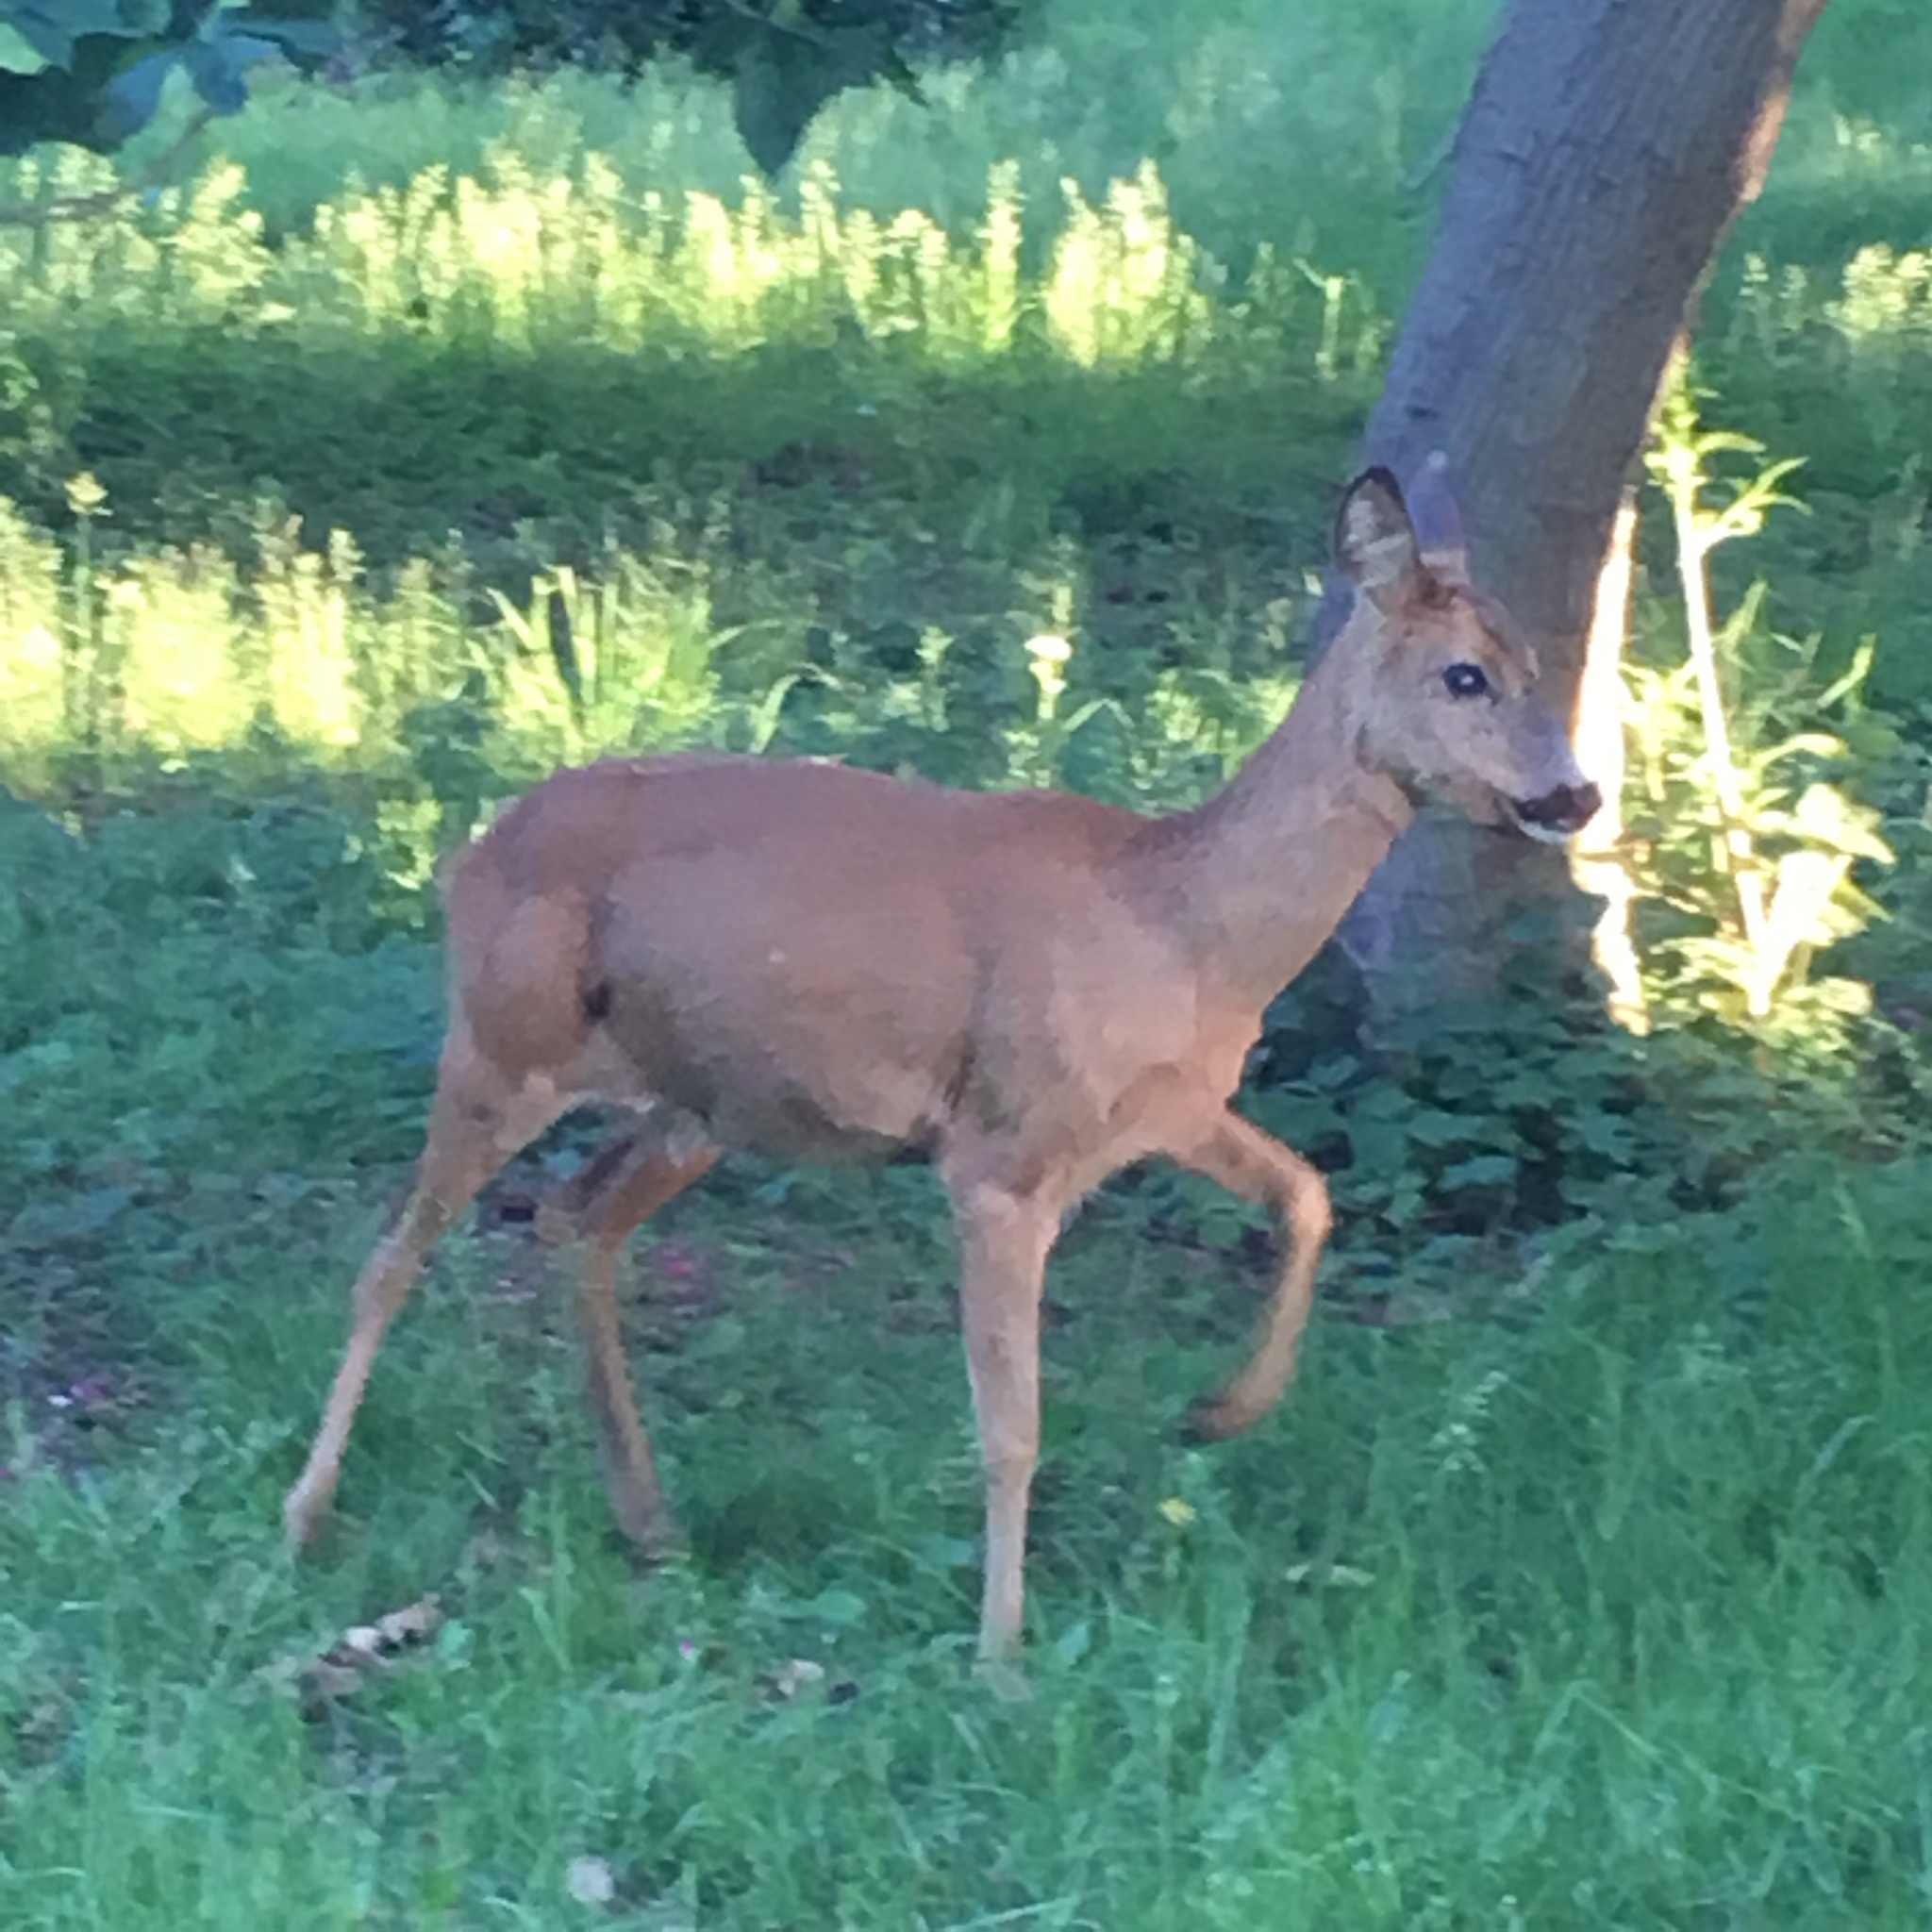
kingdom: Animalia
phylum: Chordata
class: Mammalia
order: Artiodactyla
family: Cervidae
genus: Capreolus
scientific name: Capreolus capreolus
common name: Western roe deer
